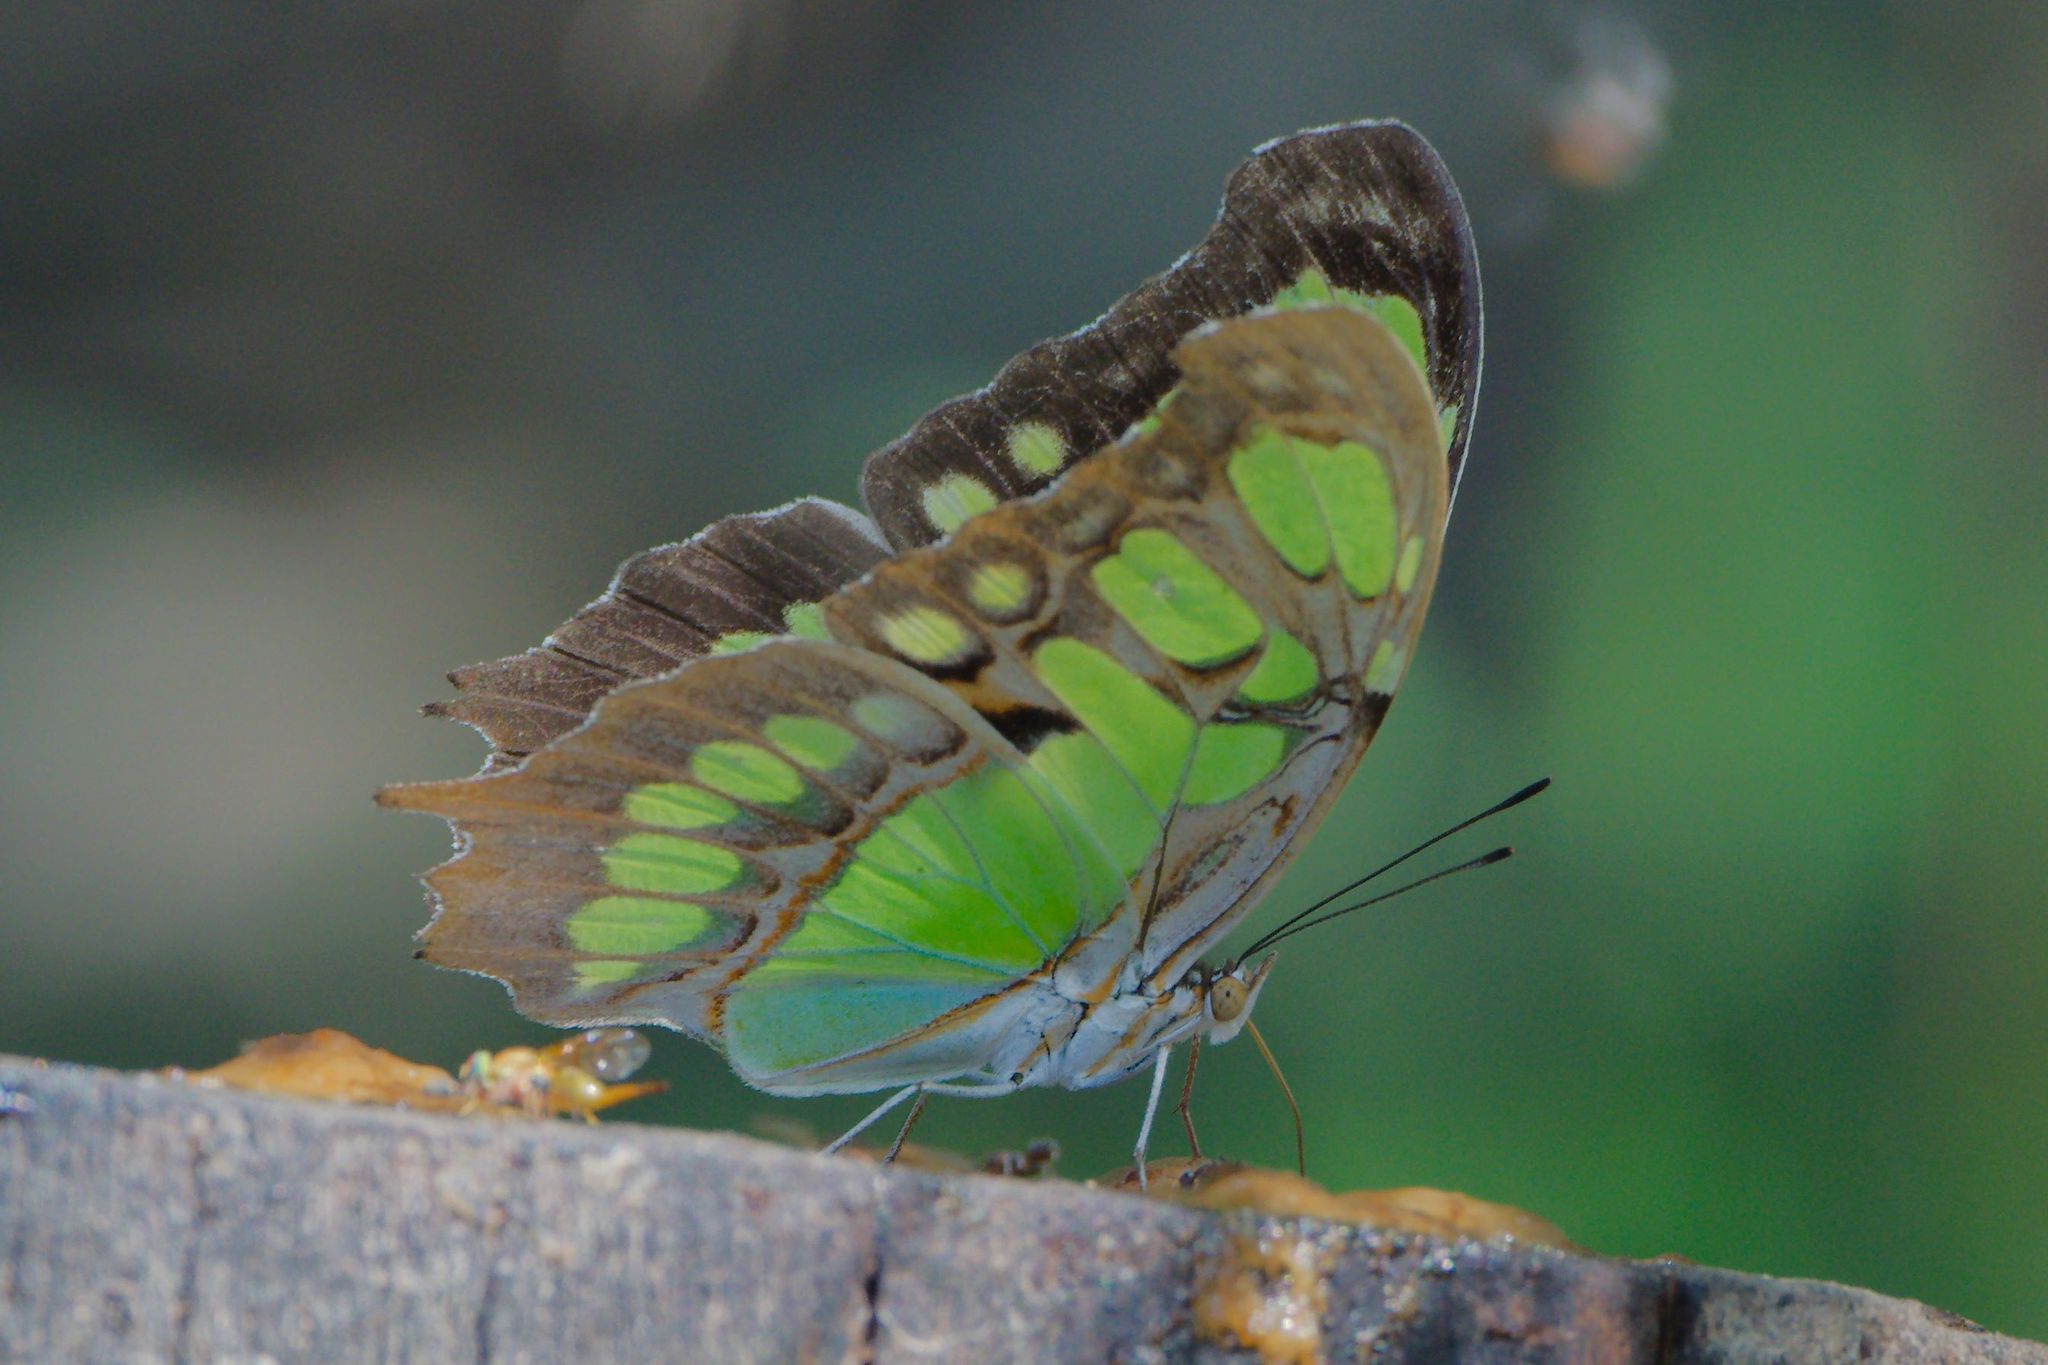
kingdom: Animalia
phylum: Arthropoda
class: Insecta
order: Lepidoptera
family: Nymphalidae
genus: Siproeta
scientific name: Siproeta stelenes
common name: Malachite
